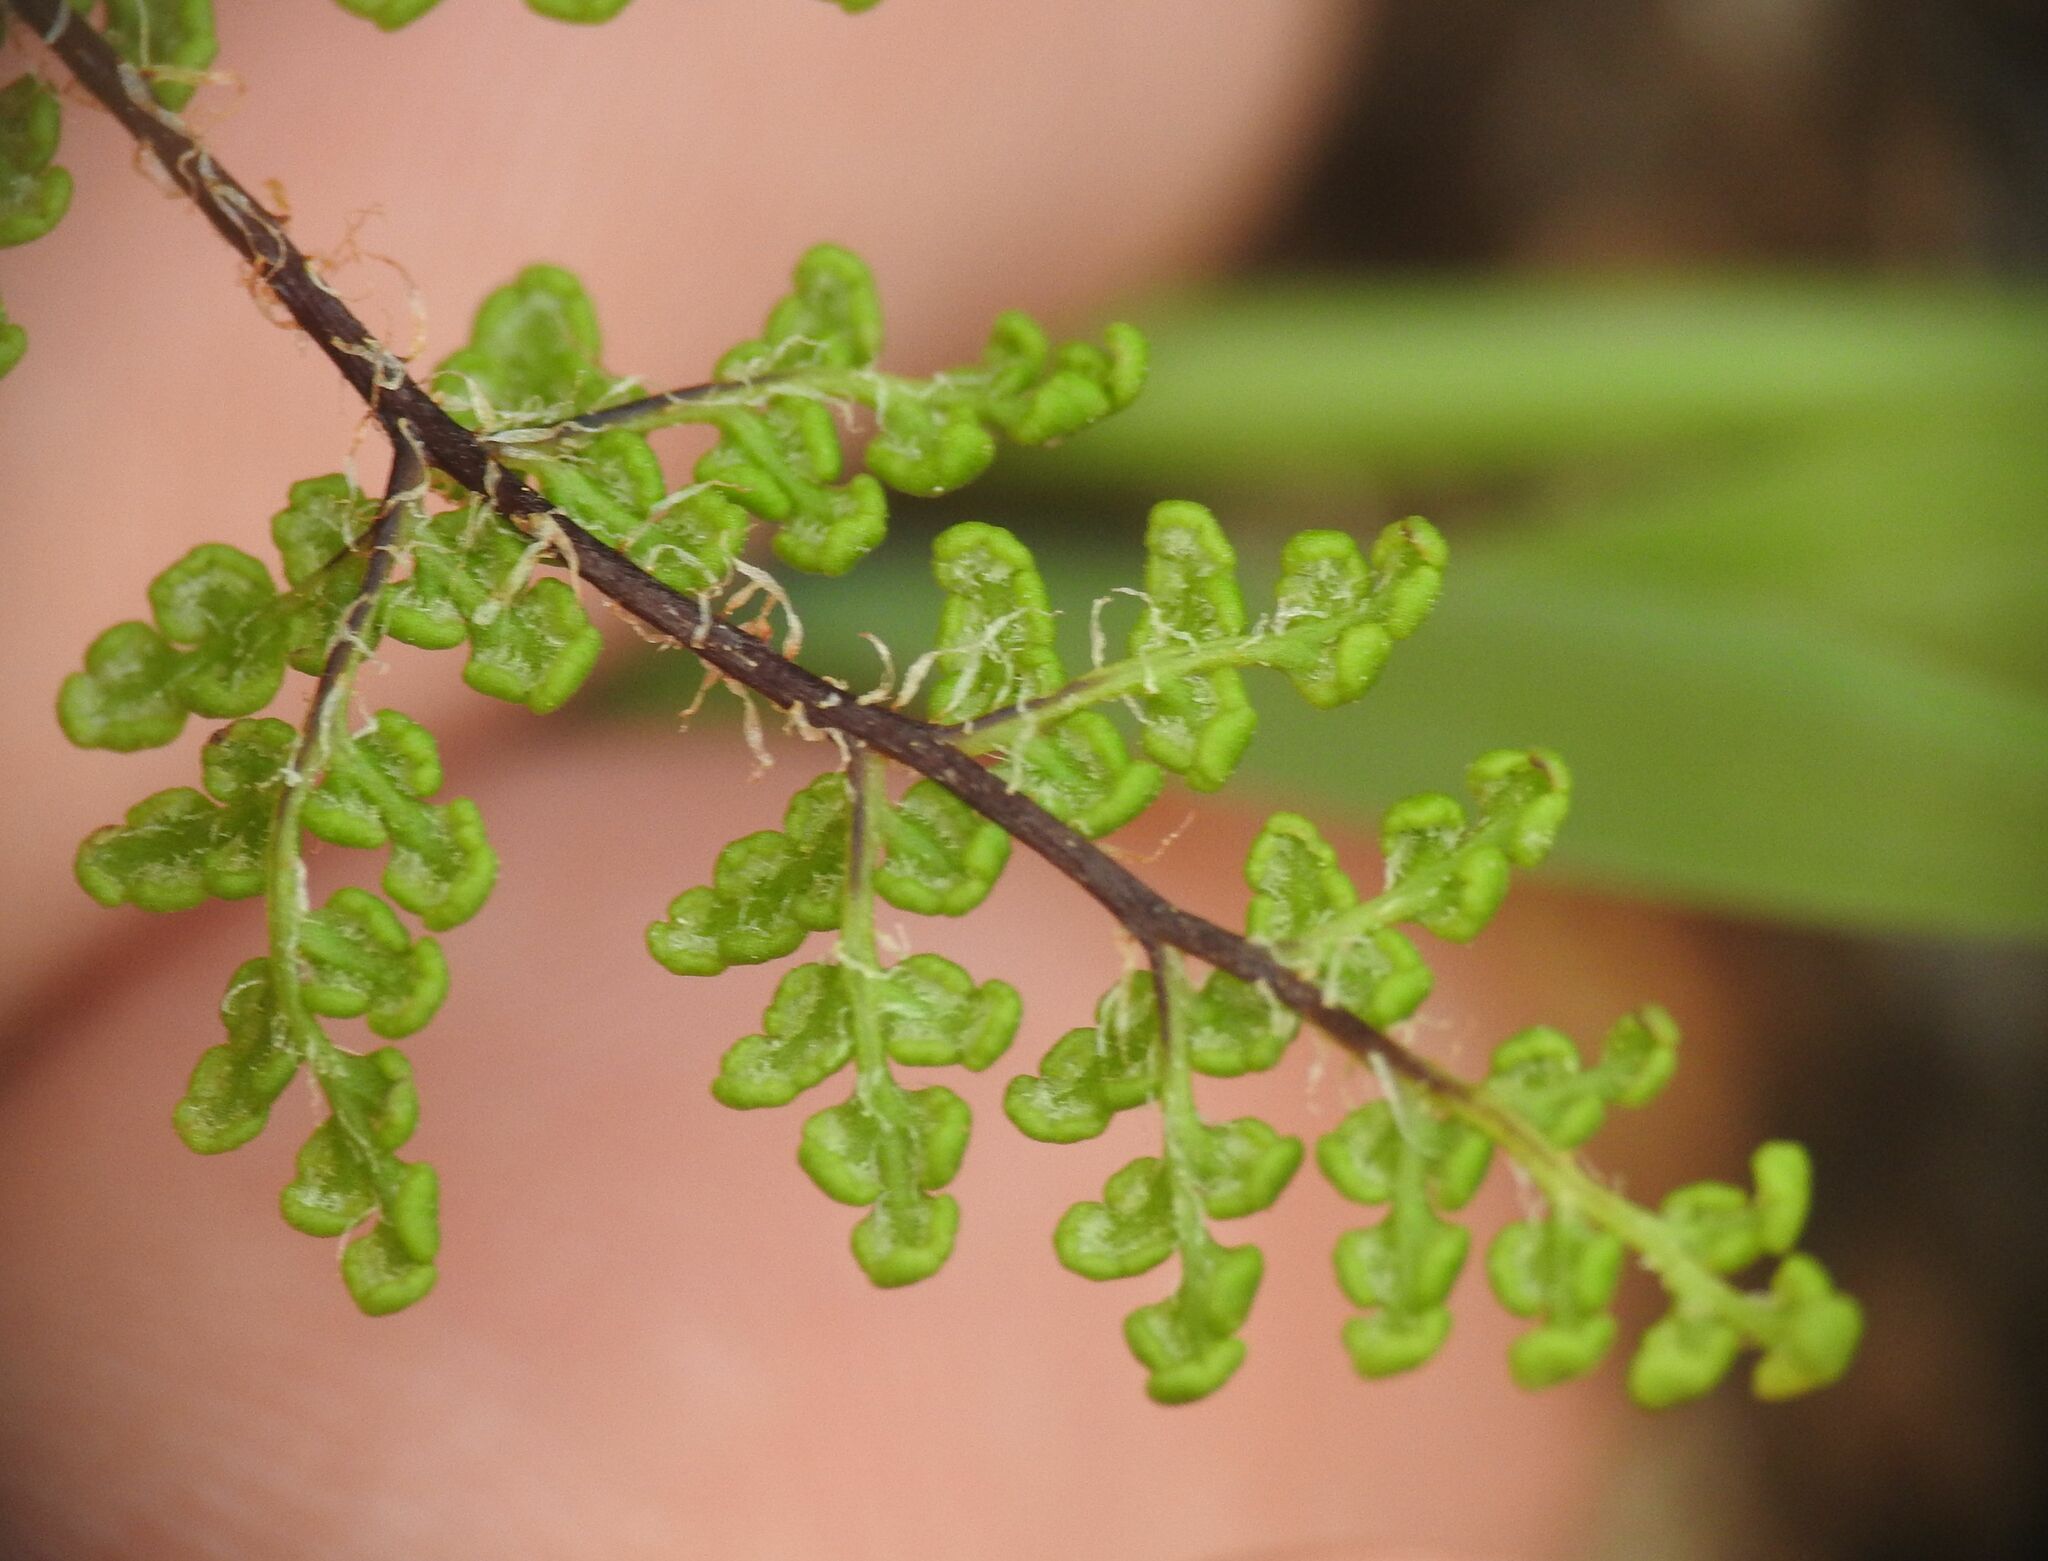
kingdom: Plantae
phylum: Tracheophyta
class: Polypodiopsida
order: Polypodiales
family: Pteridaceae
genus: Oeosporangium
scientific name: Oeosporangium pteridioides
